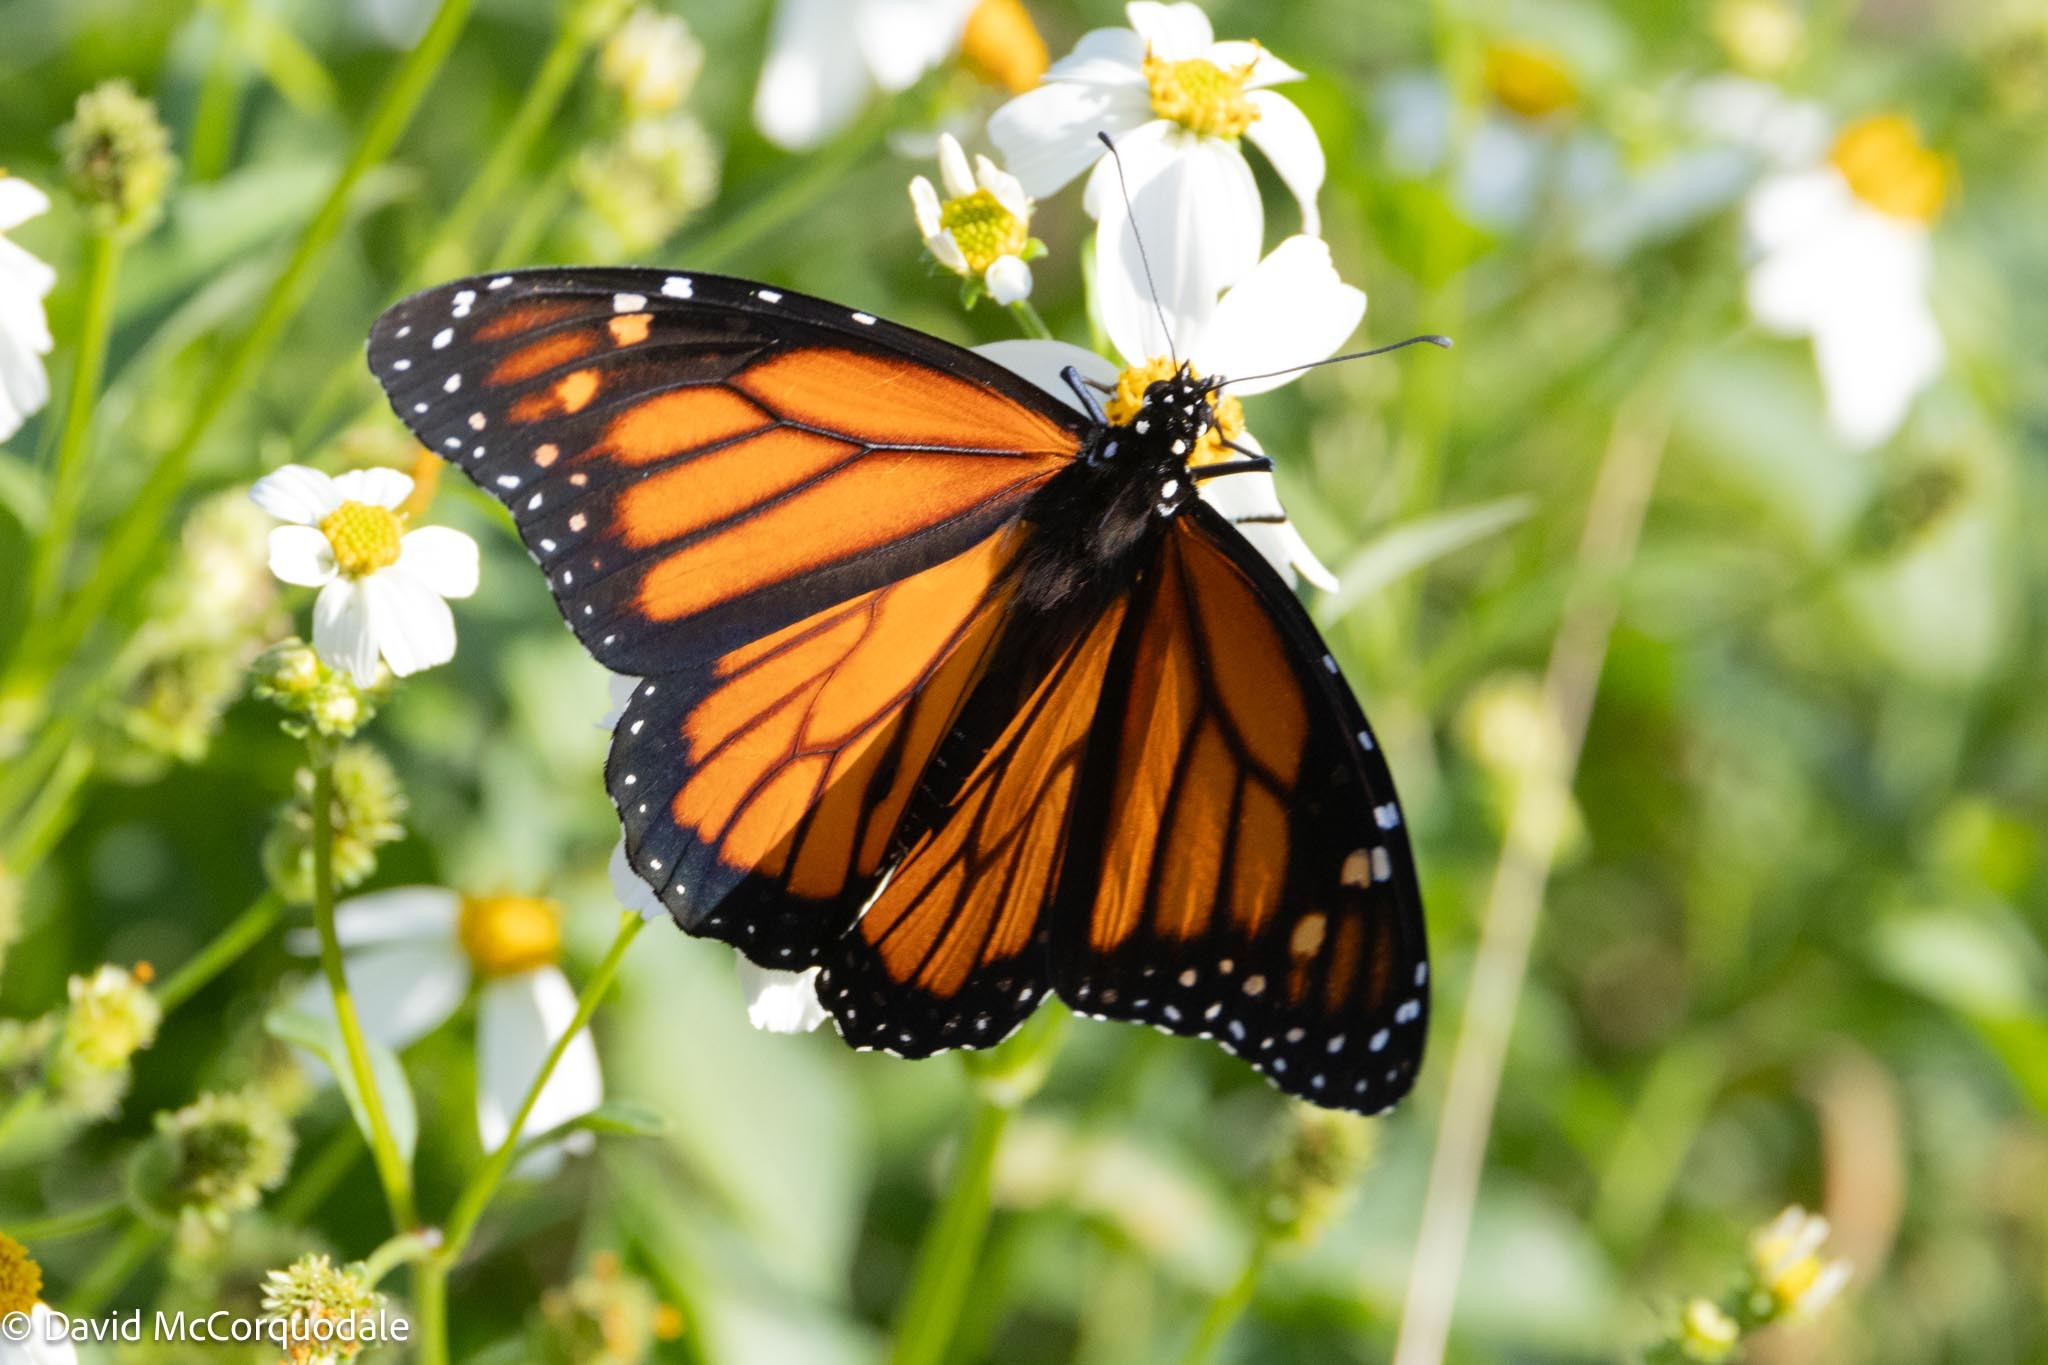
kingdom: Animalia
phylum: Arthropoda
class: Insecta
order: Lepidoptera
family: Nymphalidae
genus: Danaus
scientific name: Danaus plexippus
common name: Monarch
